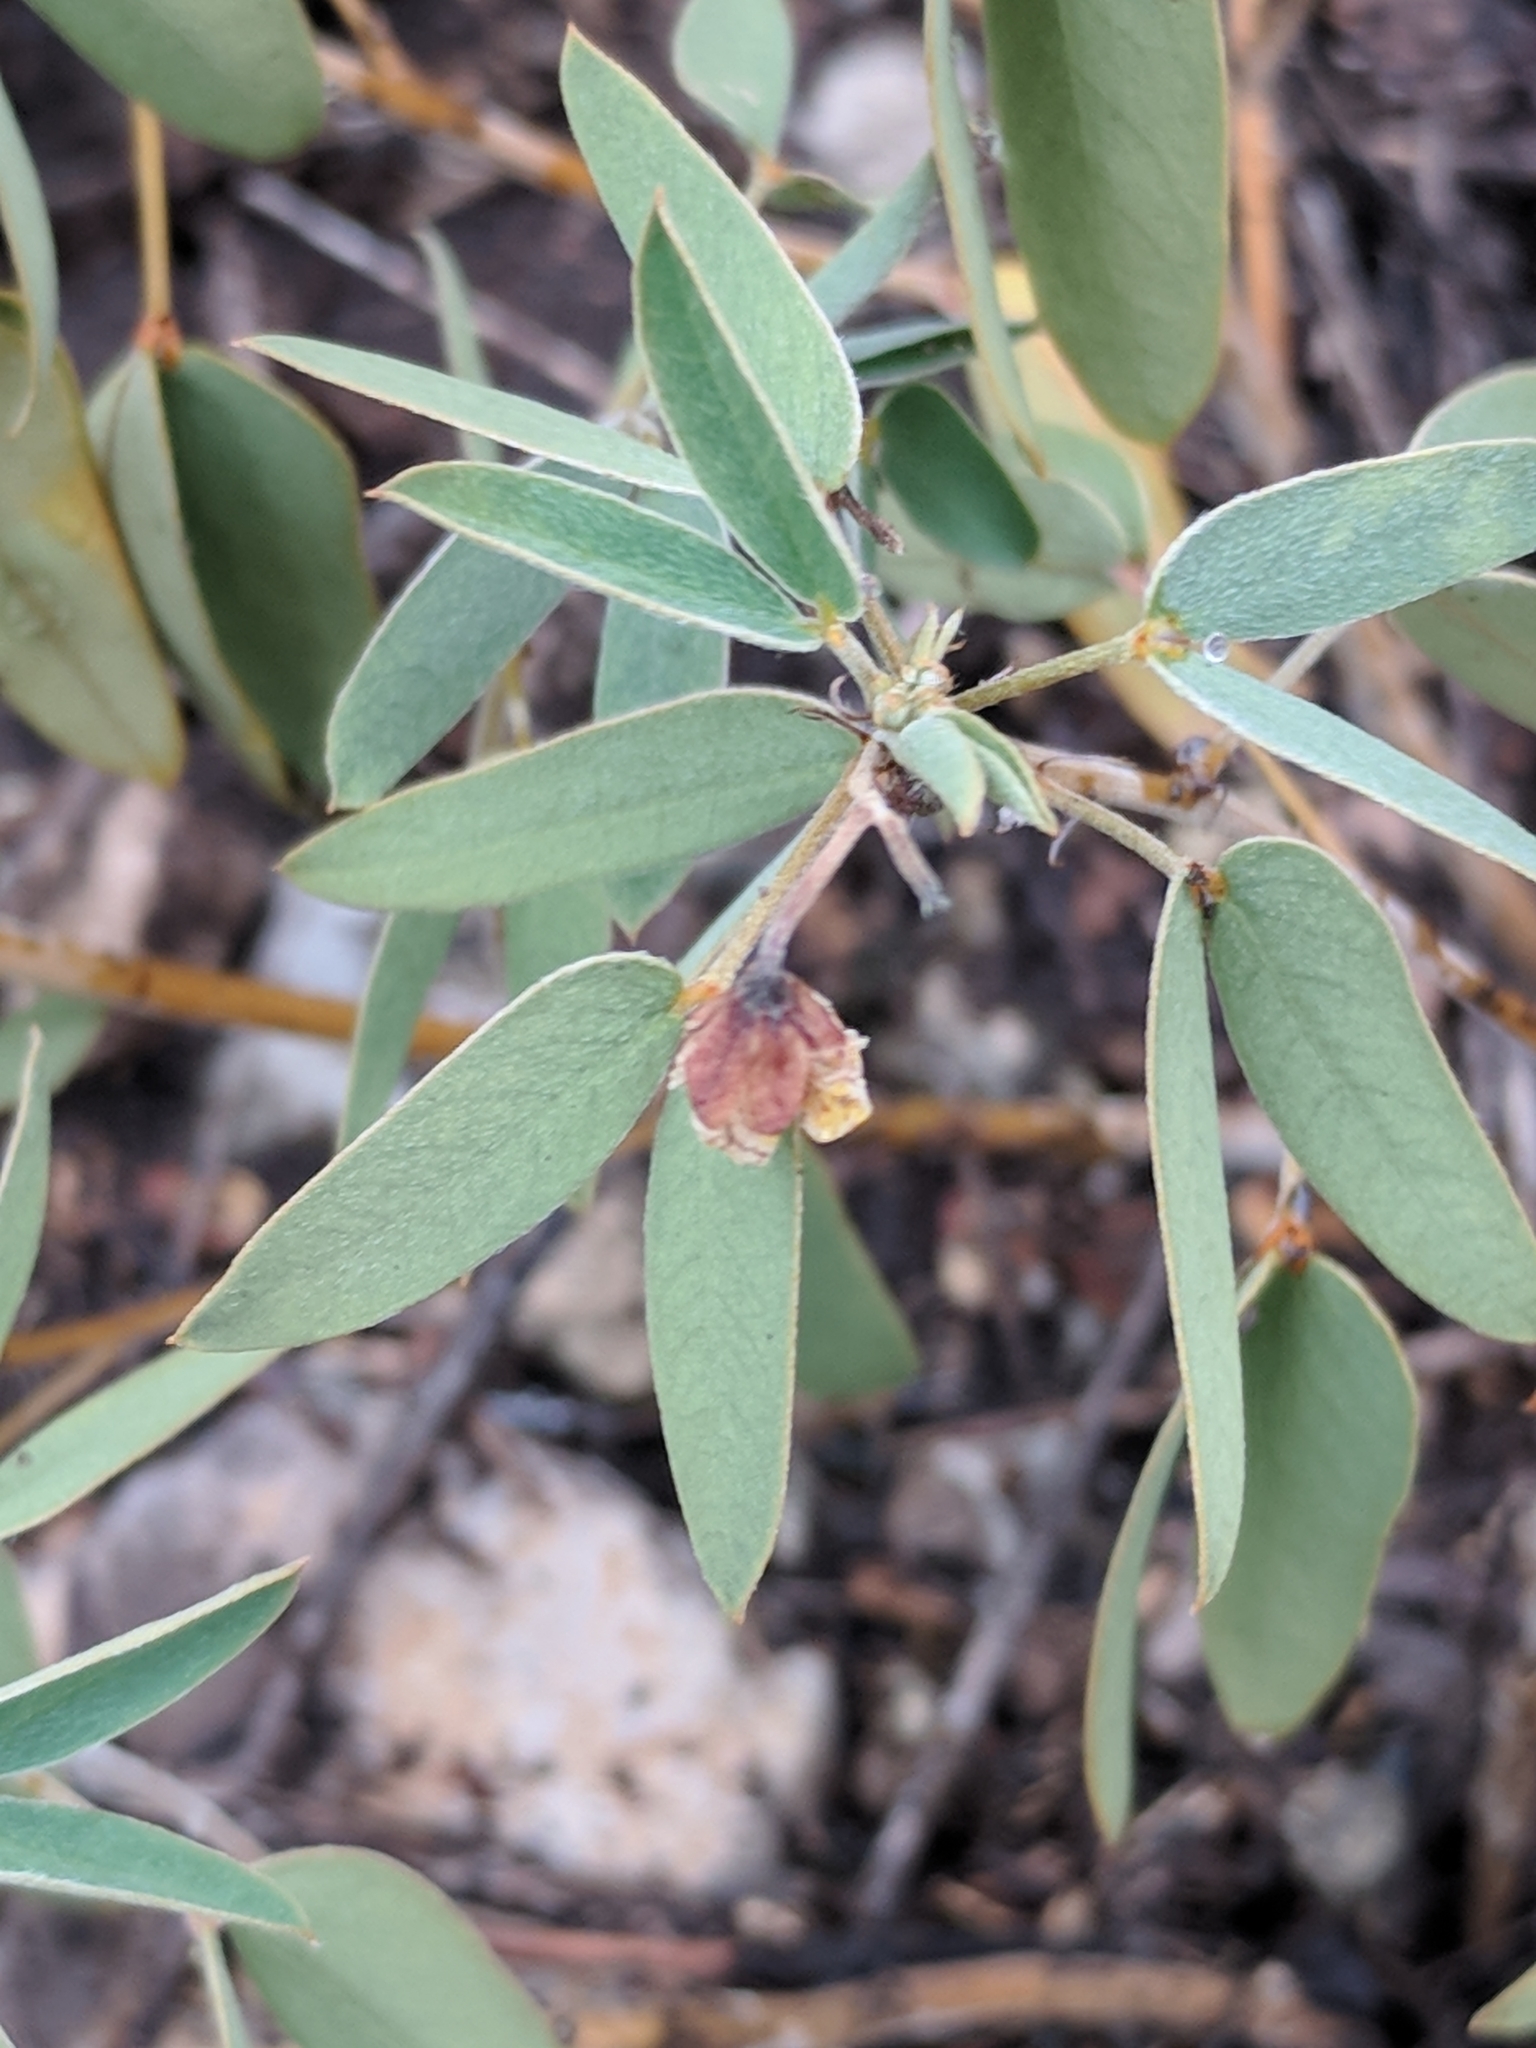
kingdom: Plantae
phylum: Tracheophyta
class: Magnoliopsida
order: Fabales
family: Fabaceae
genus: Senna
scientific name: Senna roemeriana
